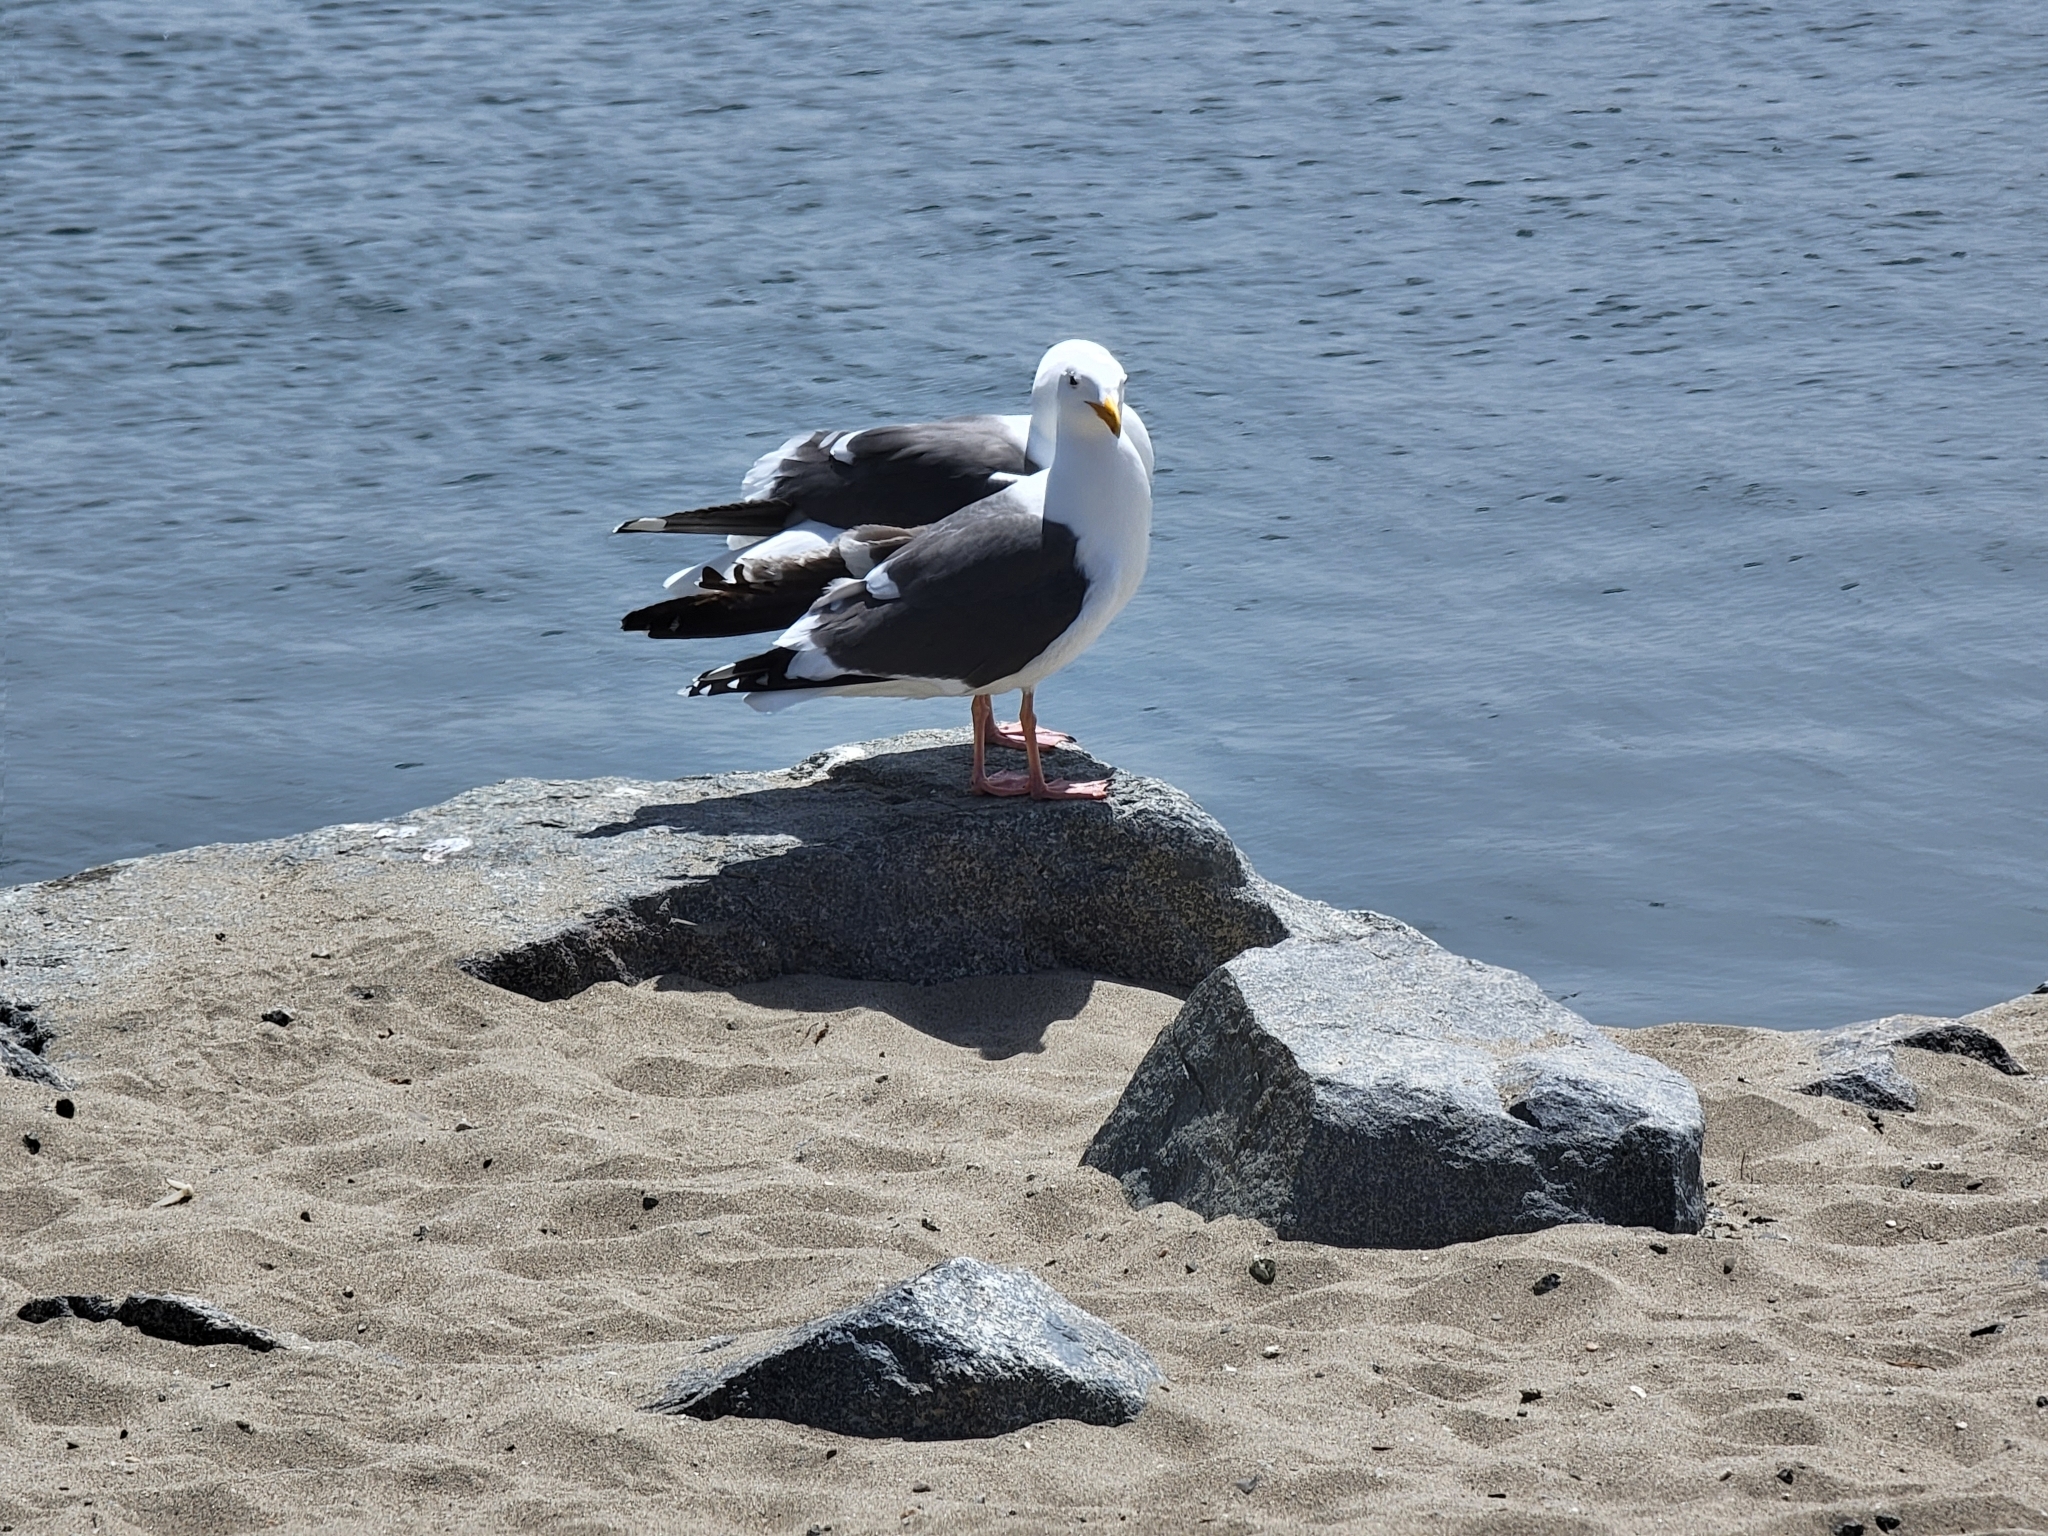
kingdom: Animalia
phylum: Chordata
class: Aves
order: Charadriiformes
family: Laridae
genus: Larus
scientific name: Larus occidentalis
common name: Western gull
